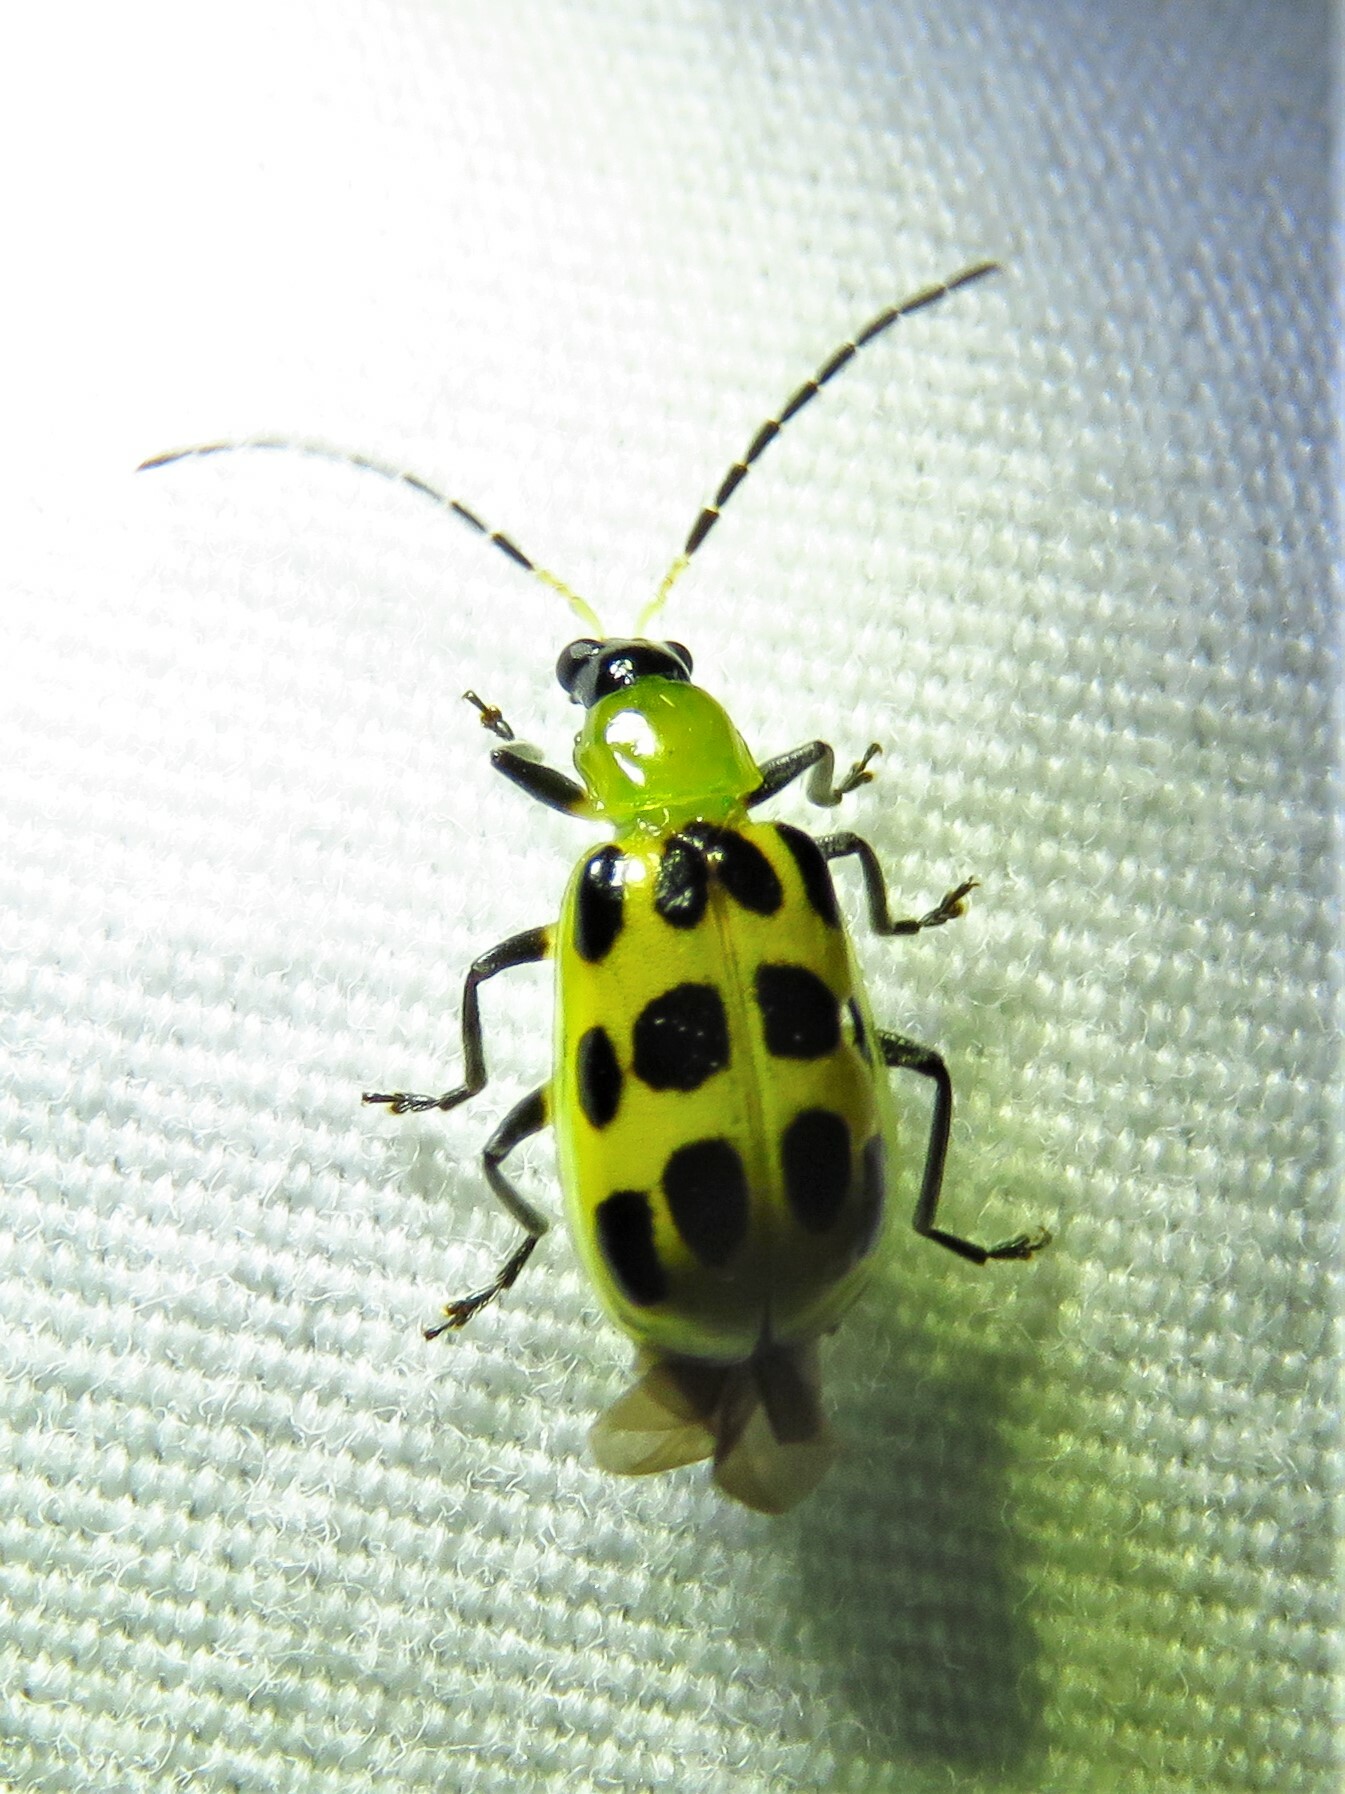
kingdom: Animalia
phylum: Arthropoda
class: Insecta
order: Coleoptera
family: Chrysomelidae
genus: Diabrotica
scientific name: Diabrotica undecimpunctata
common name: Spotted cucumber beetle
